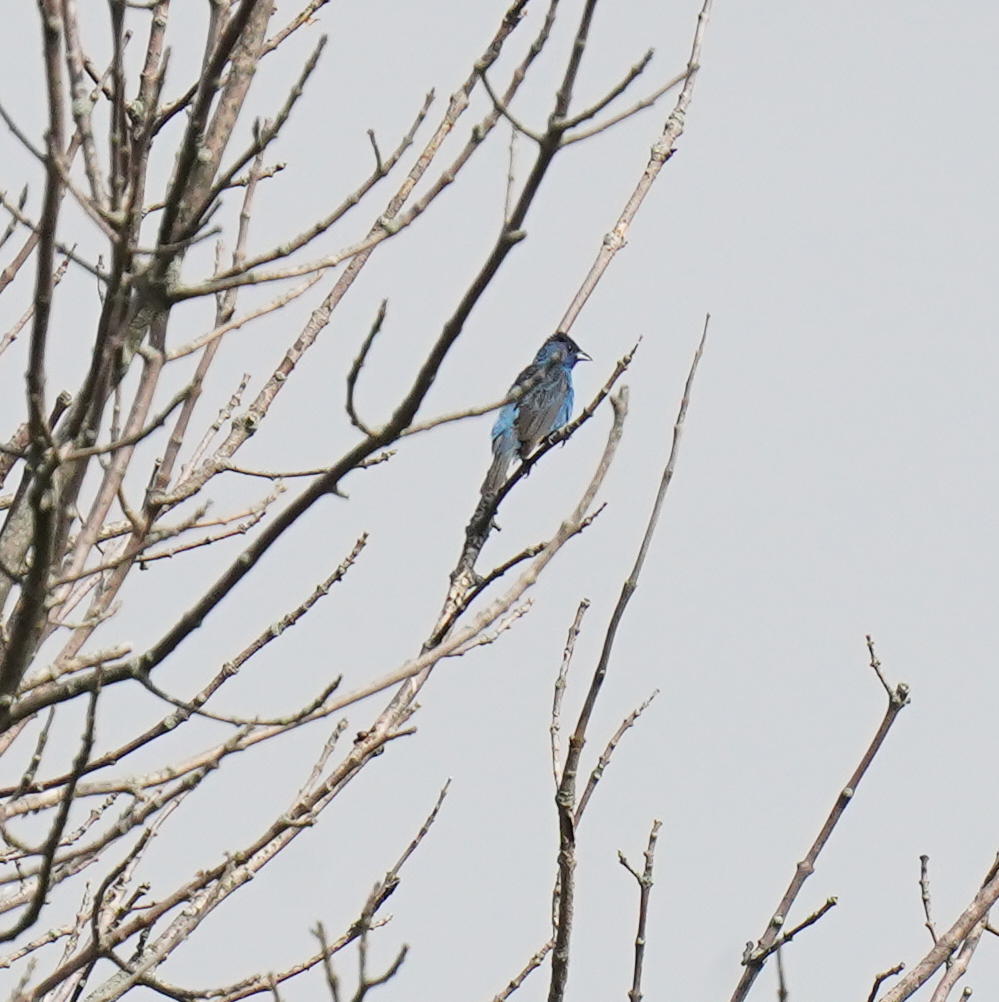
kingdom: Animalia
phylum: Chordata
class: Aves
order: Passeriformes
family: Cardinalidae
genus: Passerina
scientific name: Passerina cyanea
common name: Indigo bunting
